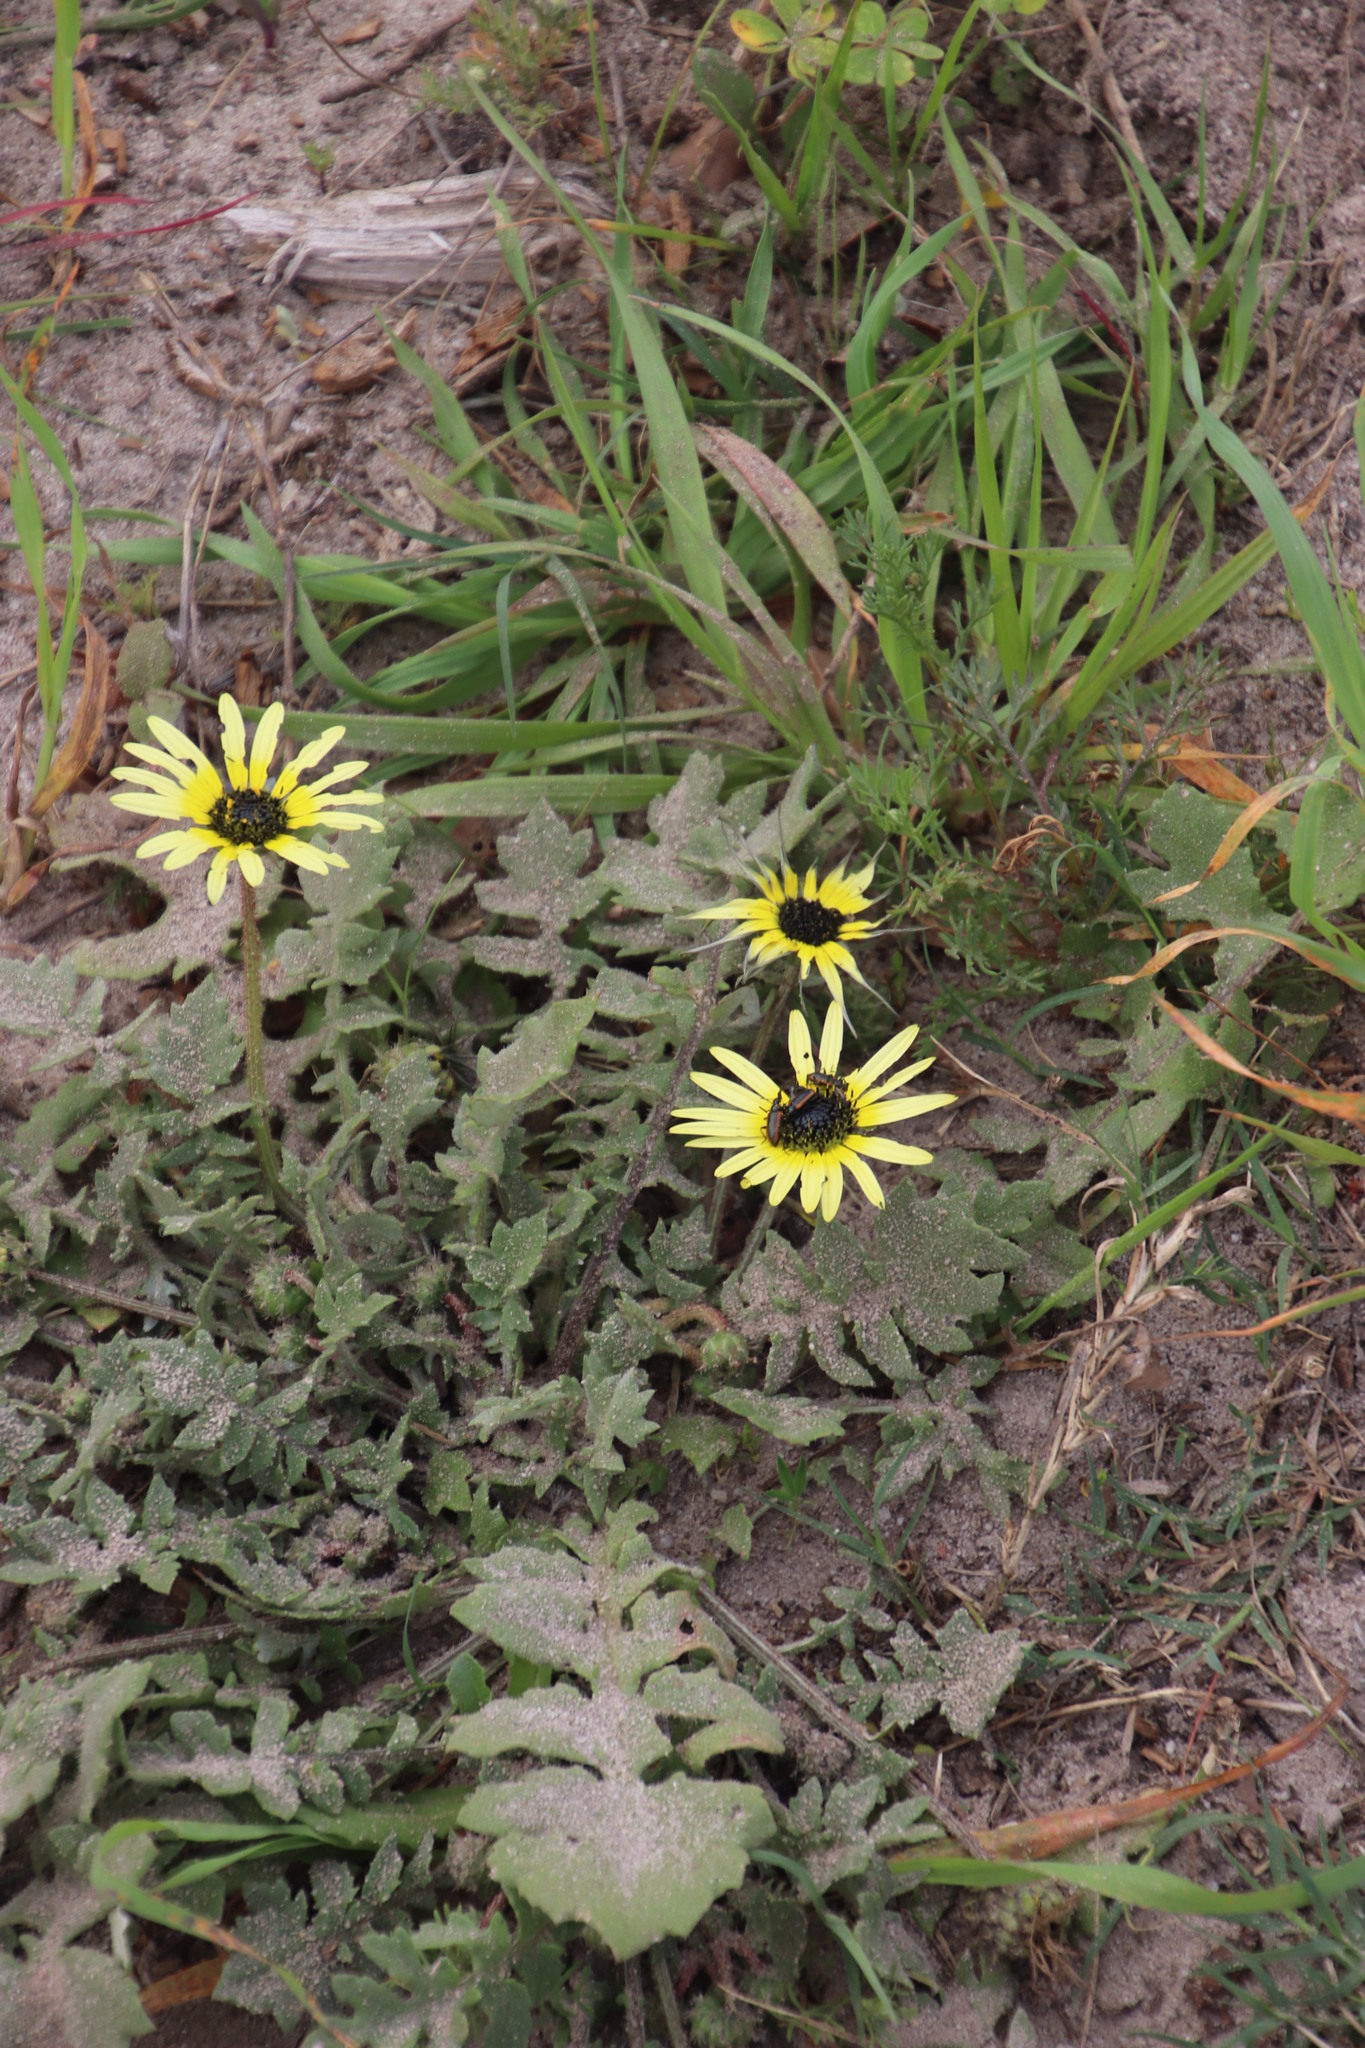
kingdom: Plantae
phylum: Tracheophyta
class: Magnoliopsida
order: Asterales
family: Asteraceae
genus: Arctotheca
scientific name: Arctotheca calendula
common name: Capeweed
